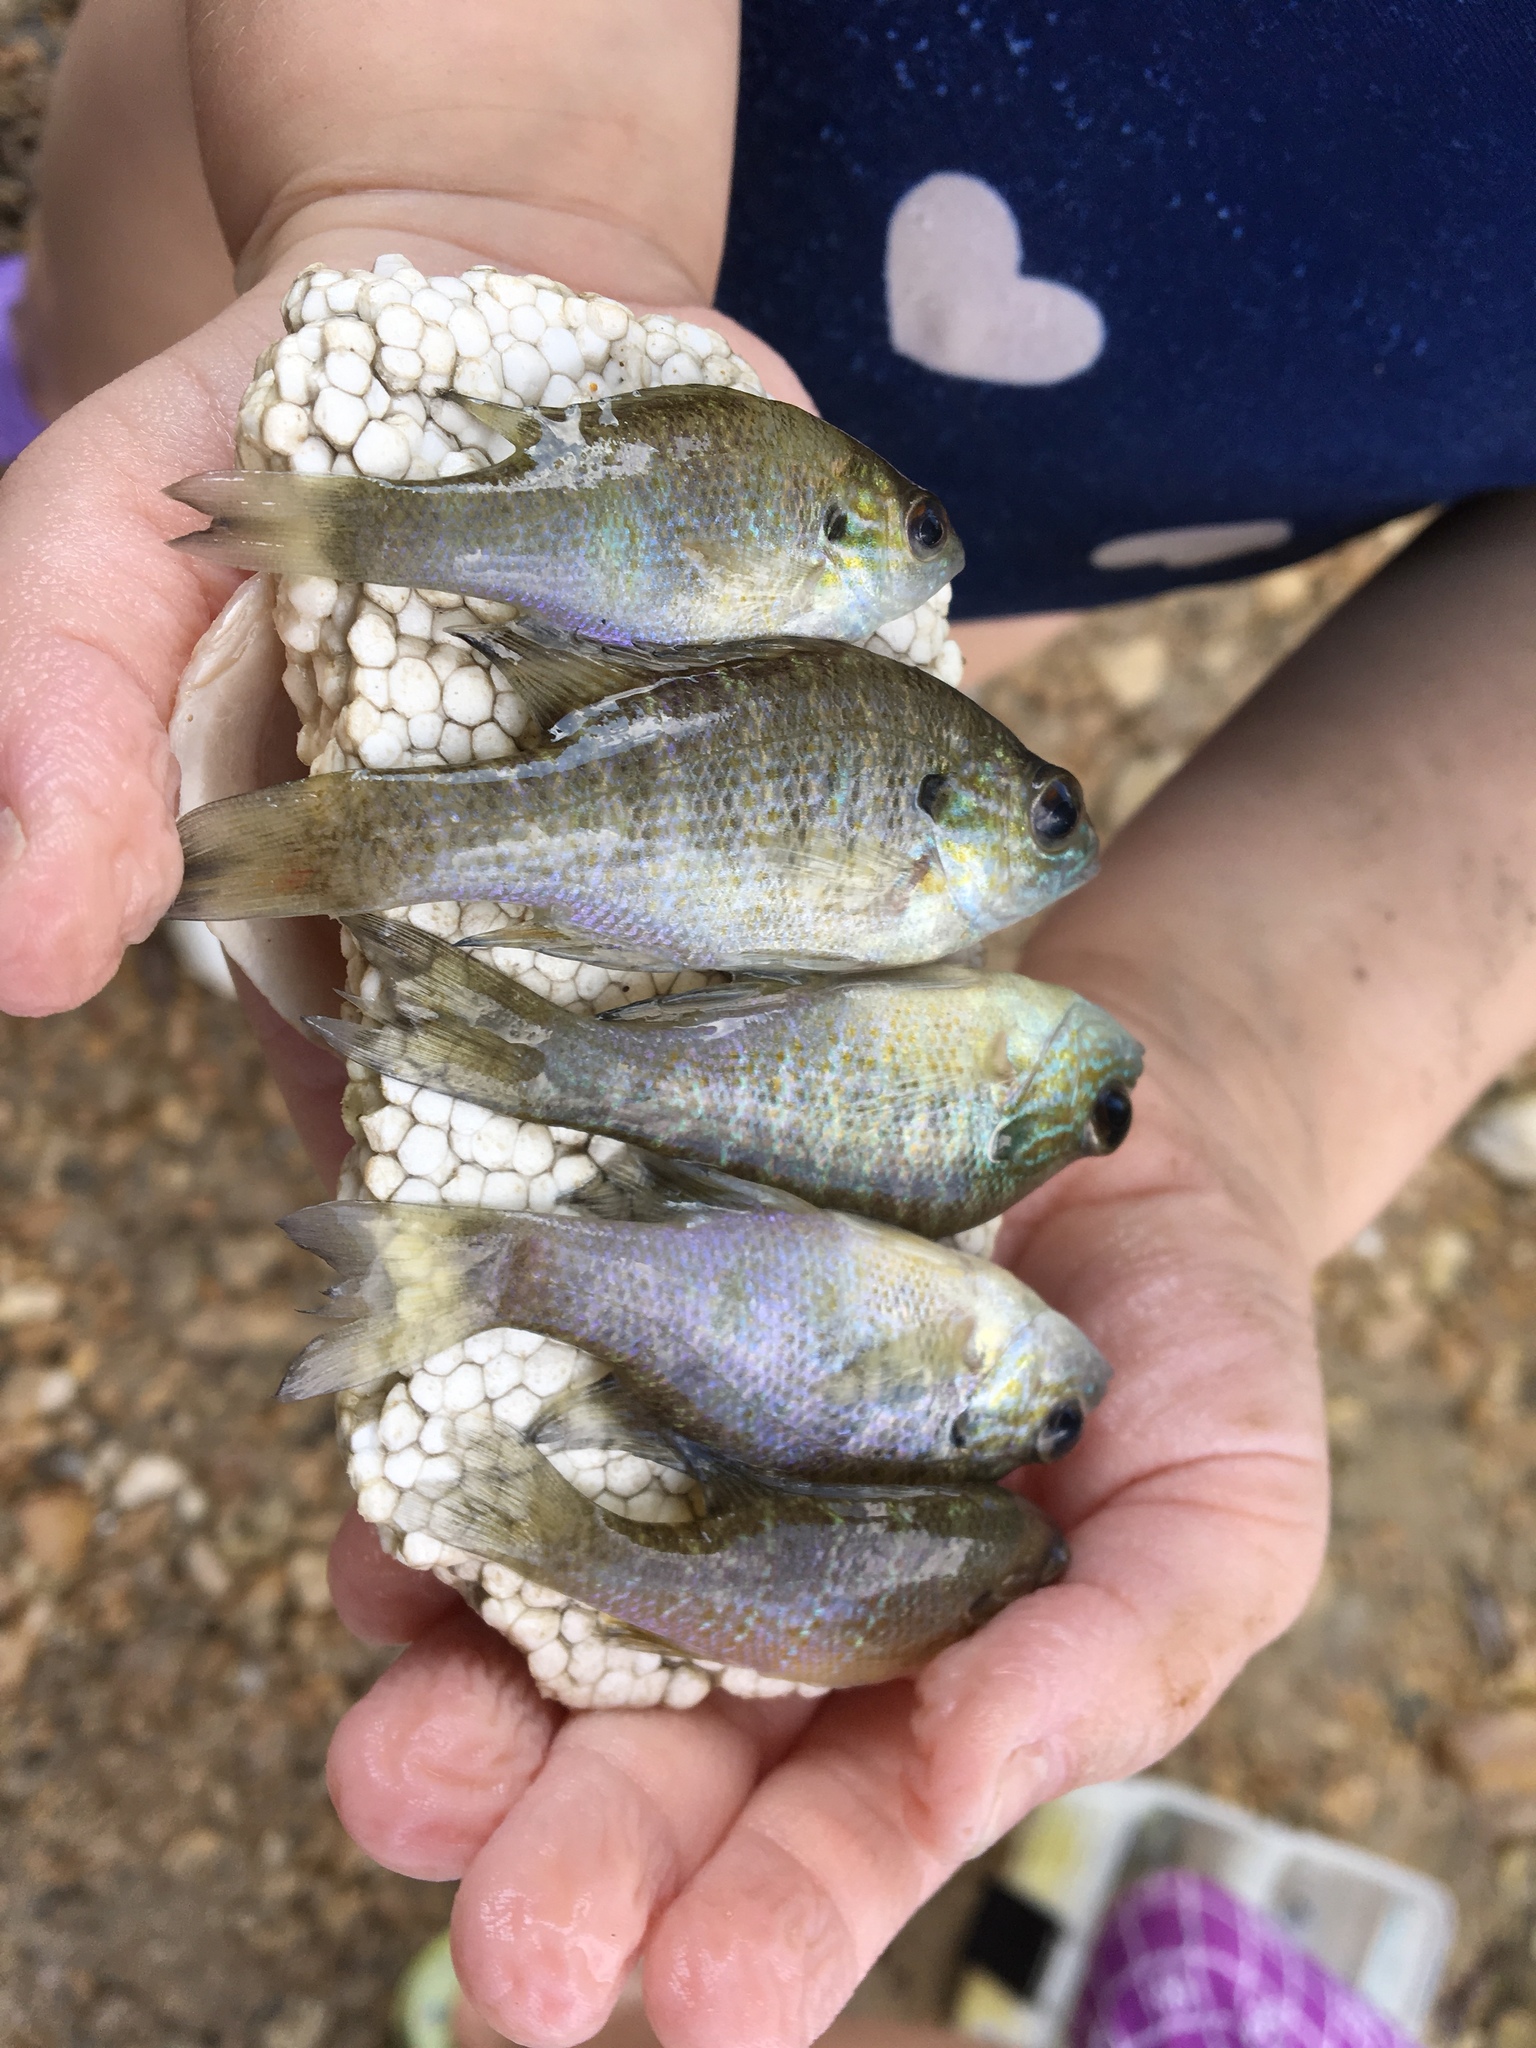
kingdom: Animalia
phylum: Chordata
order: Perciformes
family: Centrarchidae
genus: Lepomis
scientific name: Lepomis megalotis
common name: Longear sunfish
